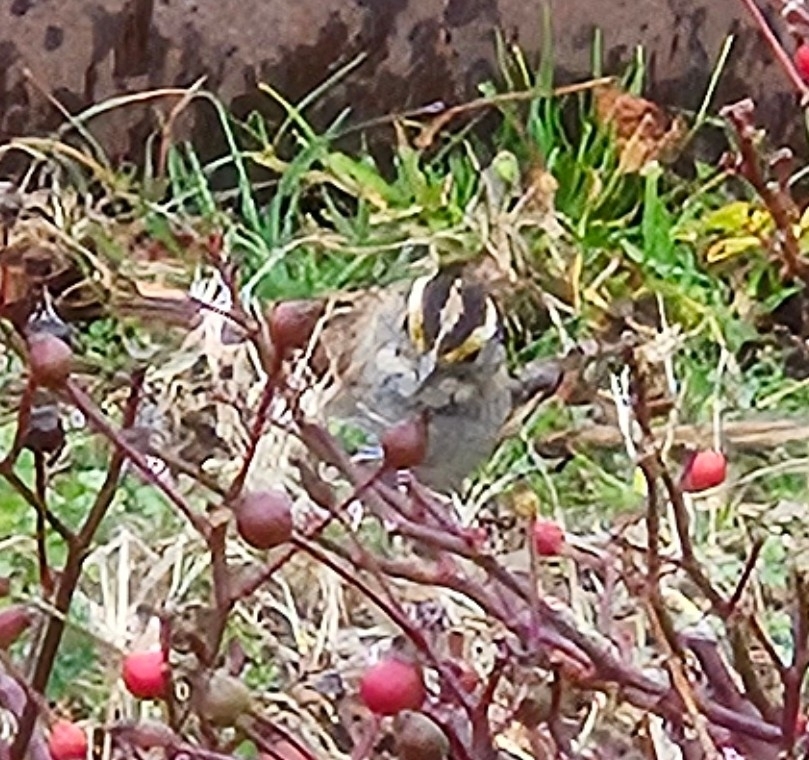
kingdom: Animalia
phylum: Chordata
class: Aves
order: Passeriformes
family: Passerellidae
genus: Zonotrichia
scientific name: Zonotrichia albicollis
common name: White-throated sparrow
